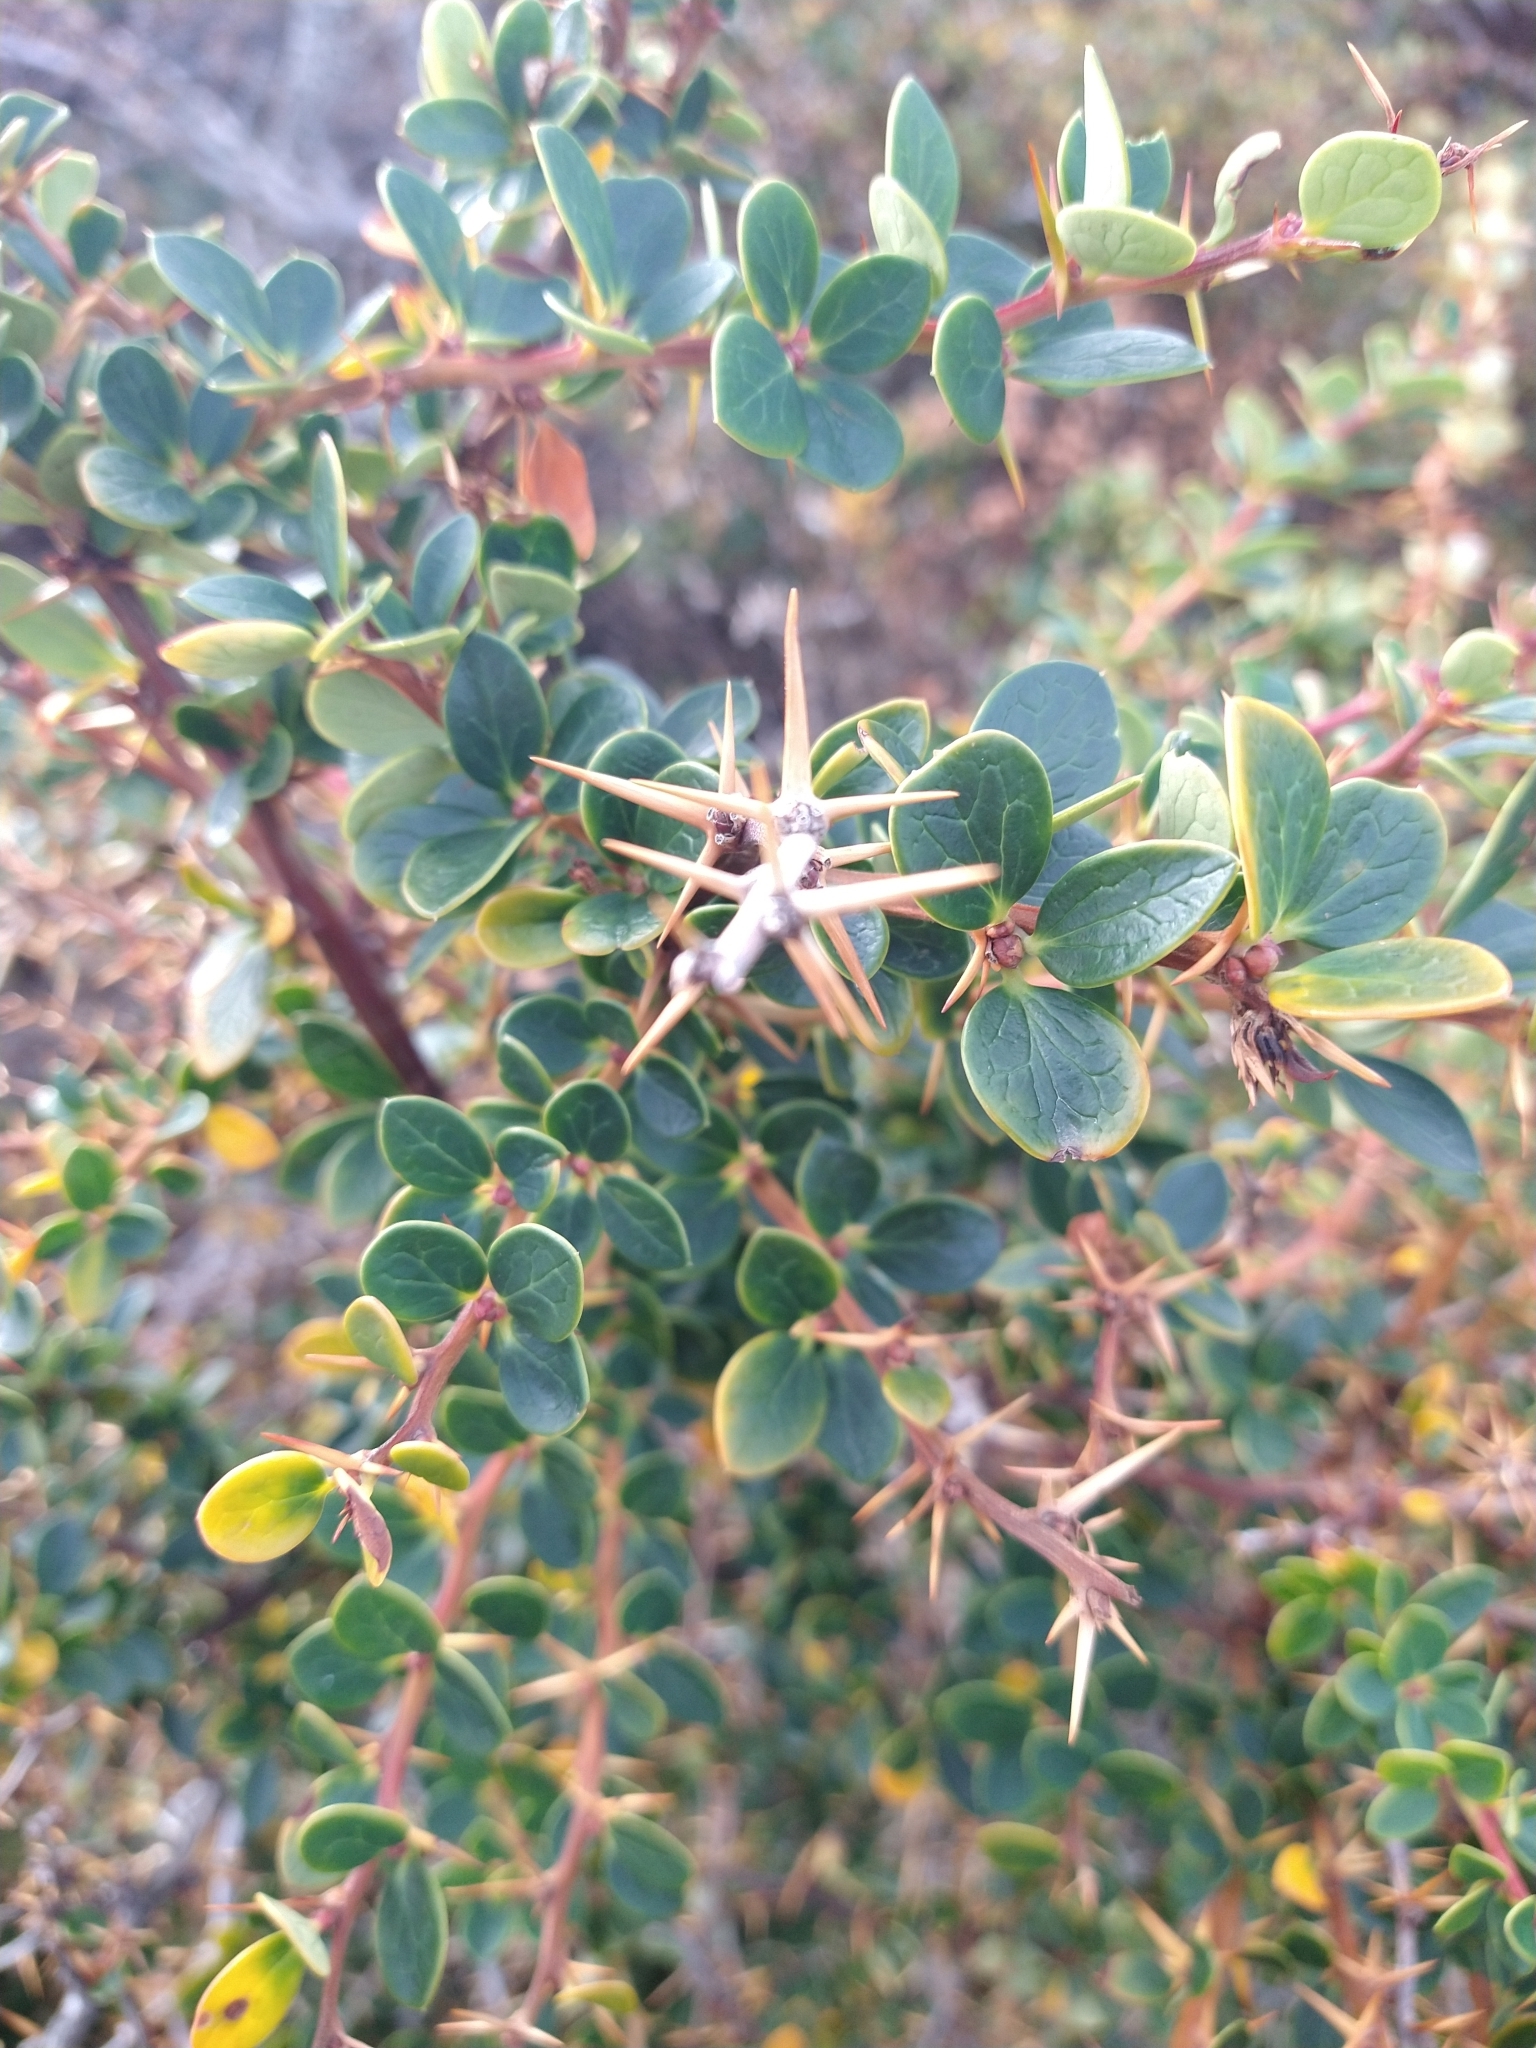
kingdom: Plantae
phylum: Tracheophyta
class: Magnoliopsida
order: Ranunculales
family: Berberidaceae
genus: Berberis
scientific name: Berberis microphylla
